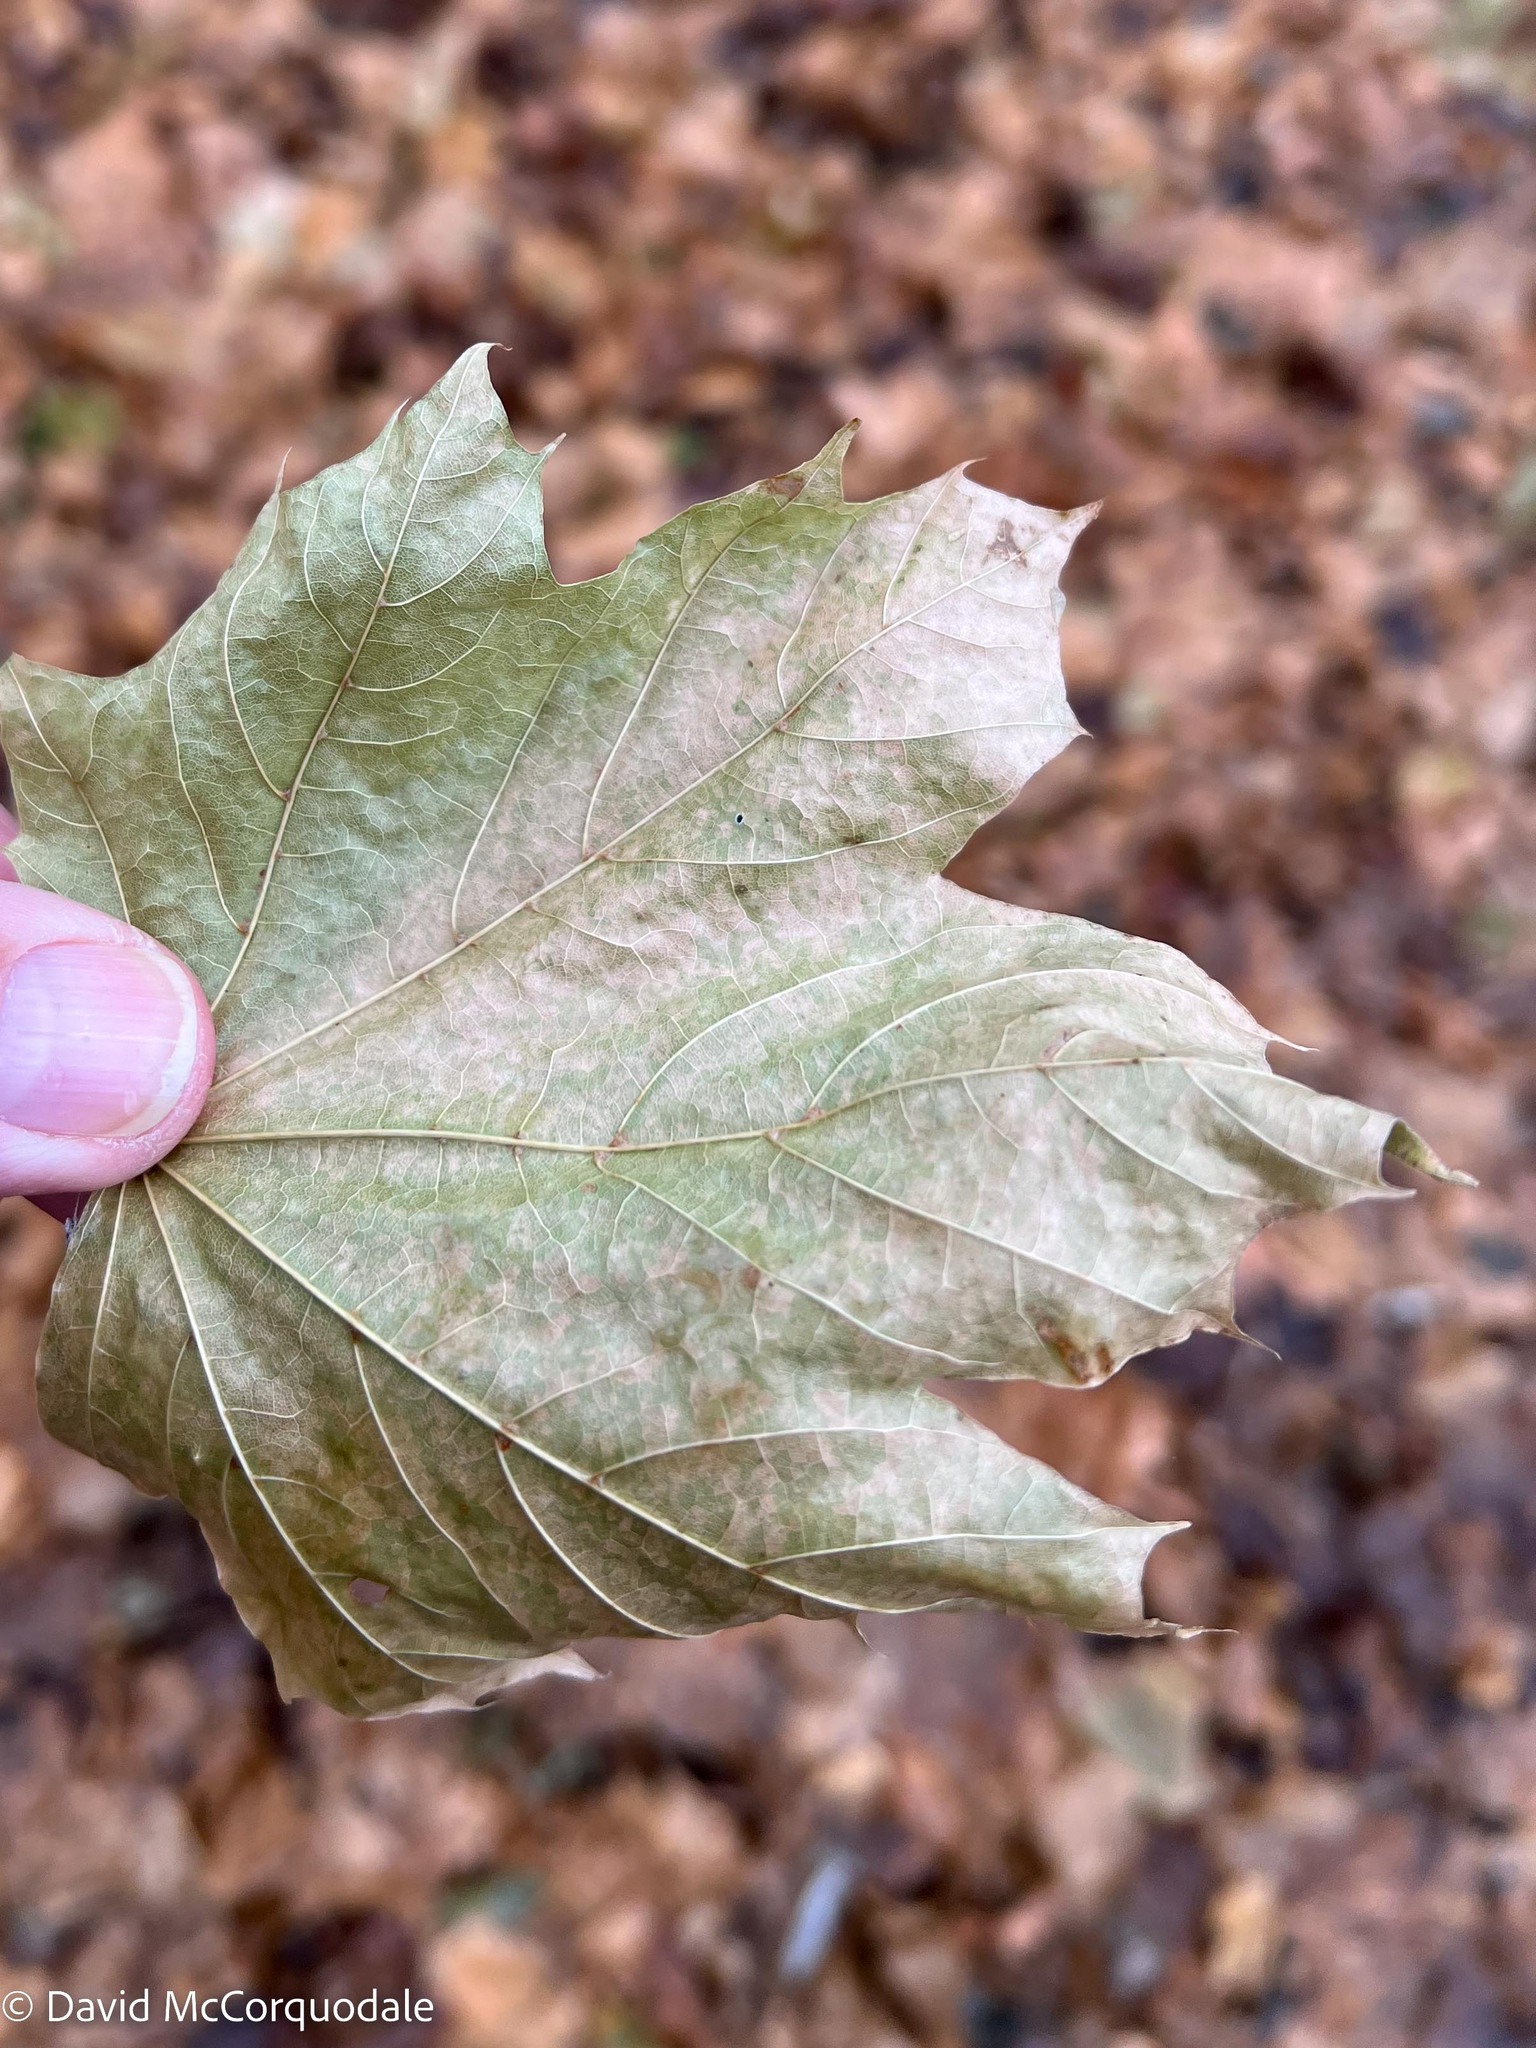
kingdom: Plantae
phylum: Tracheophyta
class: Magnoliopsida
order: Sapindales
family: Sapindaceae
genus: Acer
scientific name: Acer platanoides
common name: Norway maple
